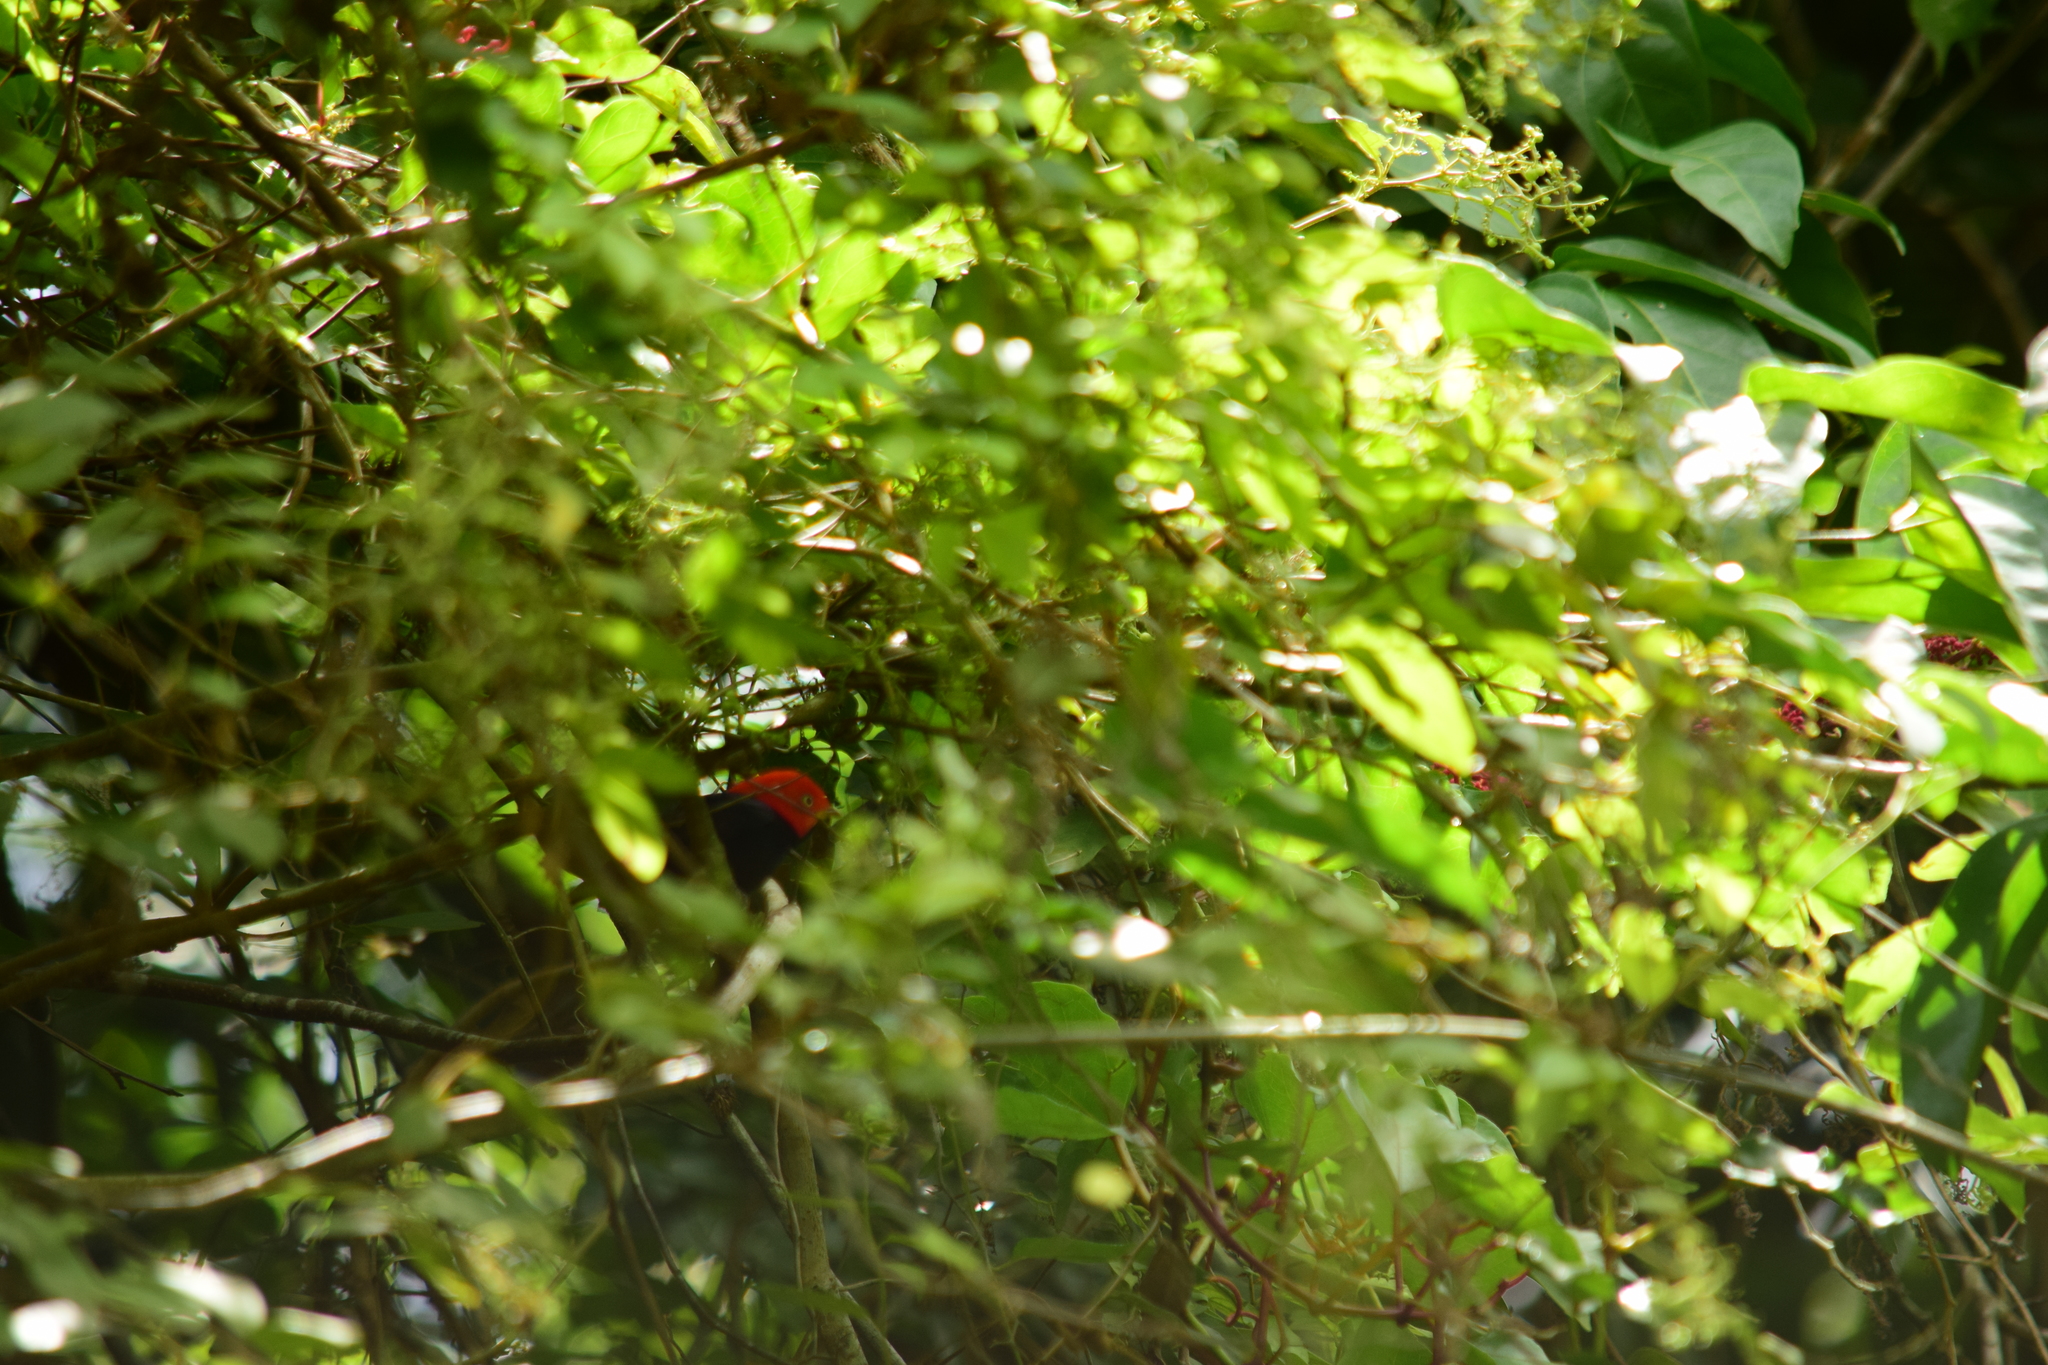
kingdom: Animalia
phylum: Chordata
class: Aves
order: Passeriformes
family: Pipridae
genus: Pipra
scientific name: Pipra mentalis
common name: Red-capped manakin
